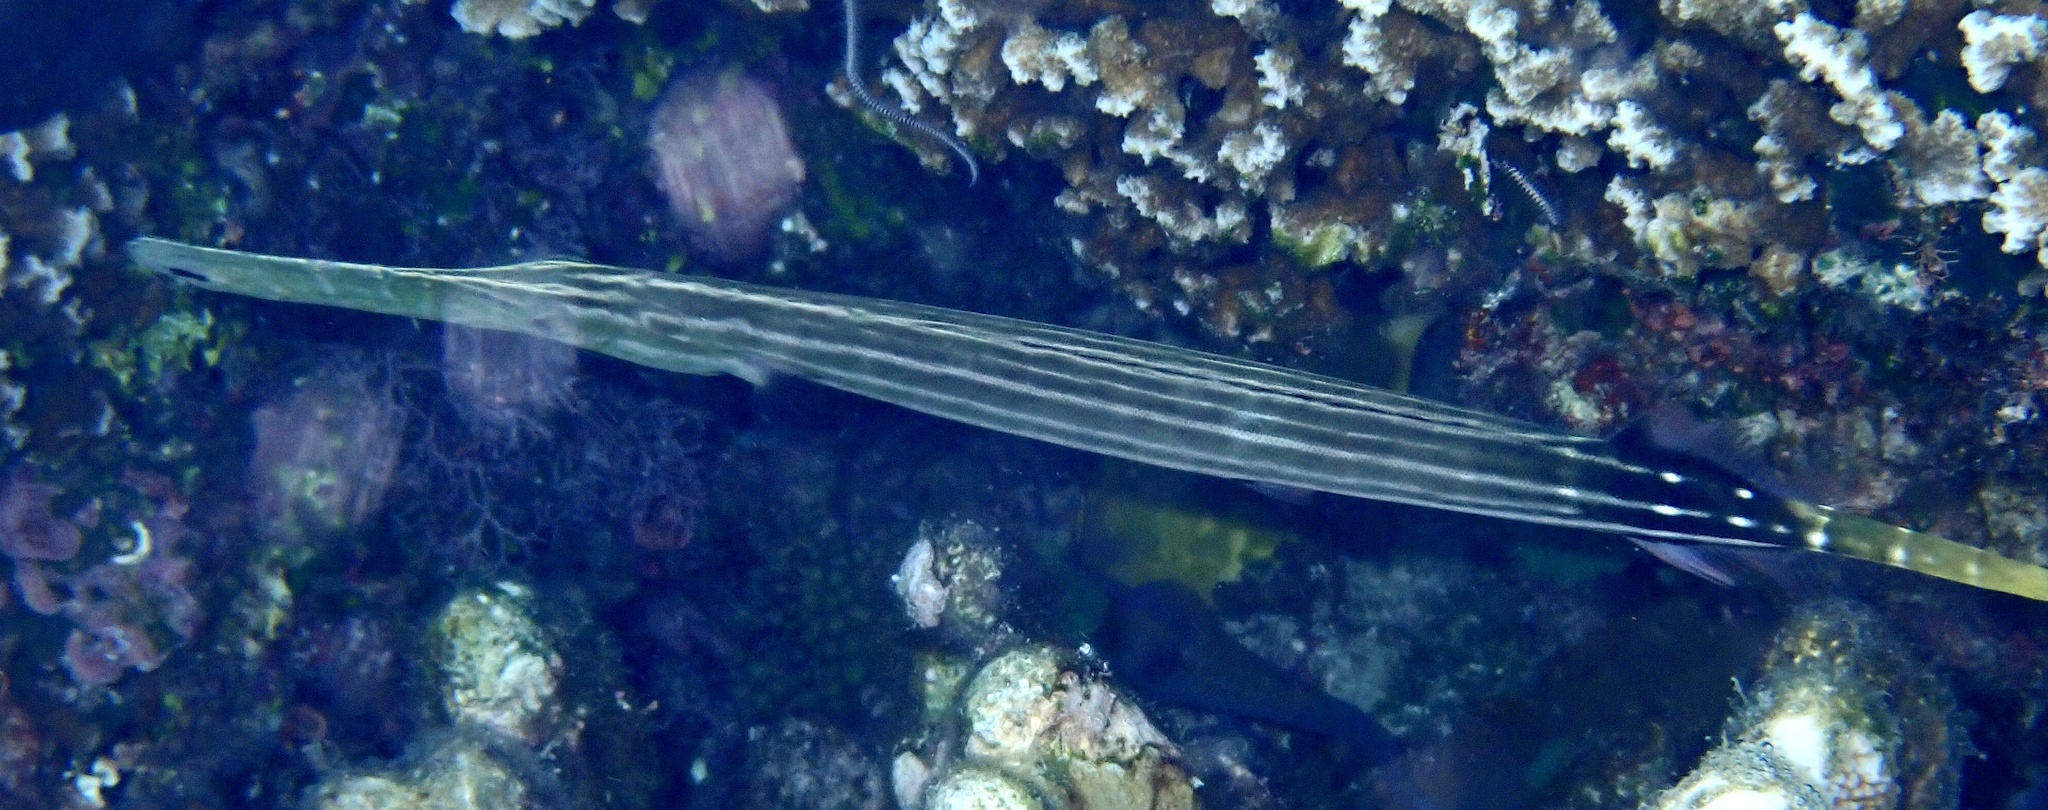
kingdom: Animalia
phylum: Chordata
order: Syngnathiformes
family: Aulostomidae
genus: Aulostomus
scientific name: Aulostomus chinensis
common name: Chinese trumpetfish
